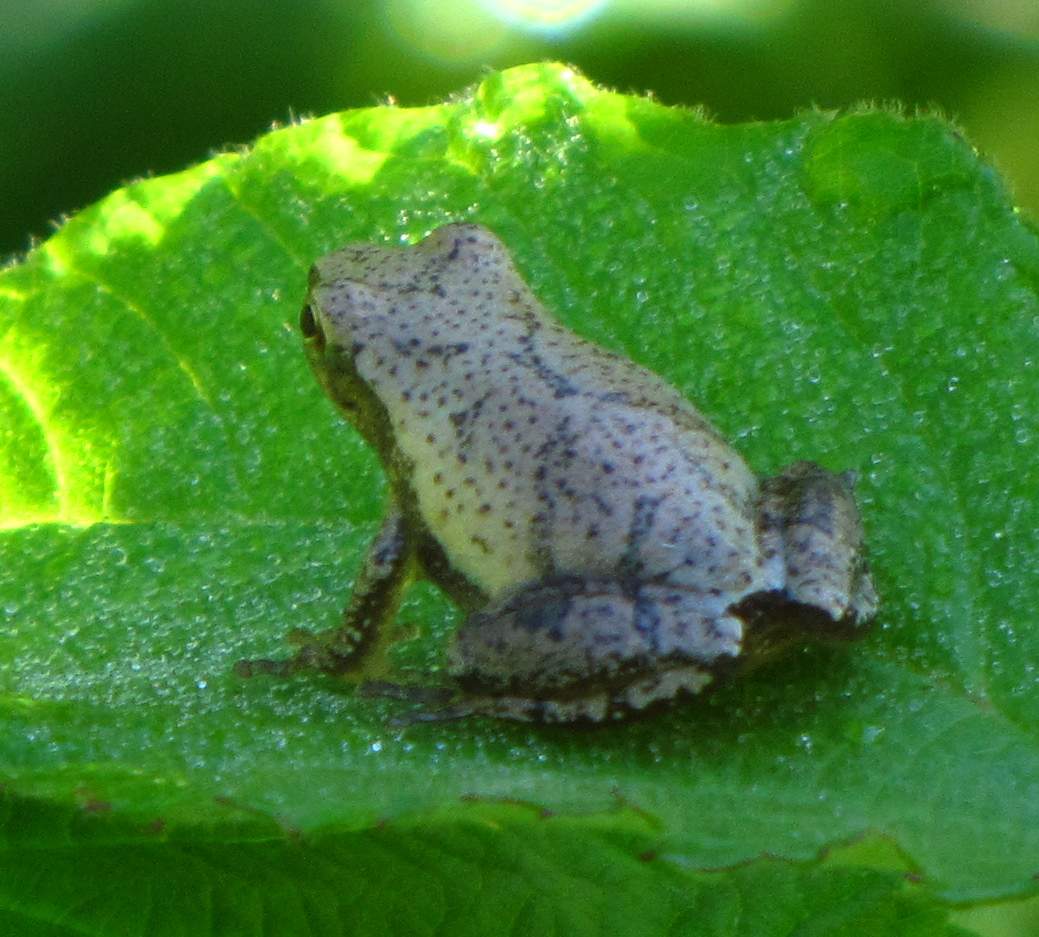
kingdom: Animalia
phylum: Chordata
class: Amphibia
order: Anura
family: Hylidae
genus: Pseudacris
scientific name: Pseudacris crucifer
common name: Spring peeper
